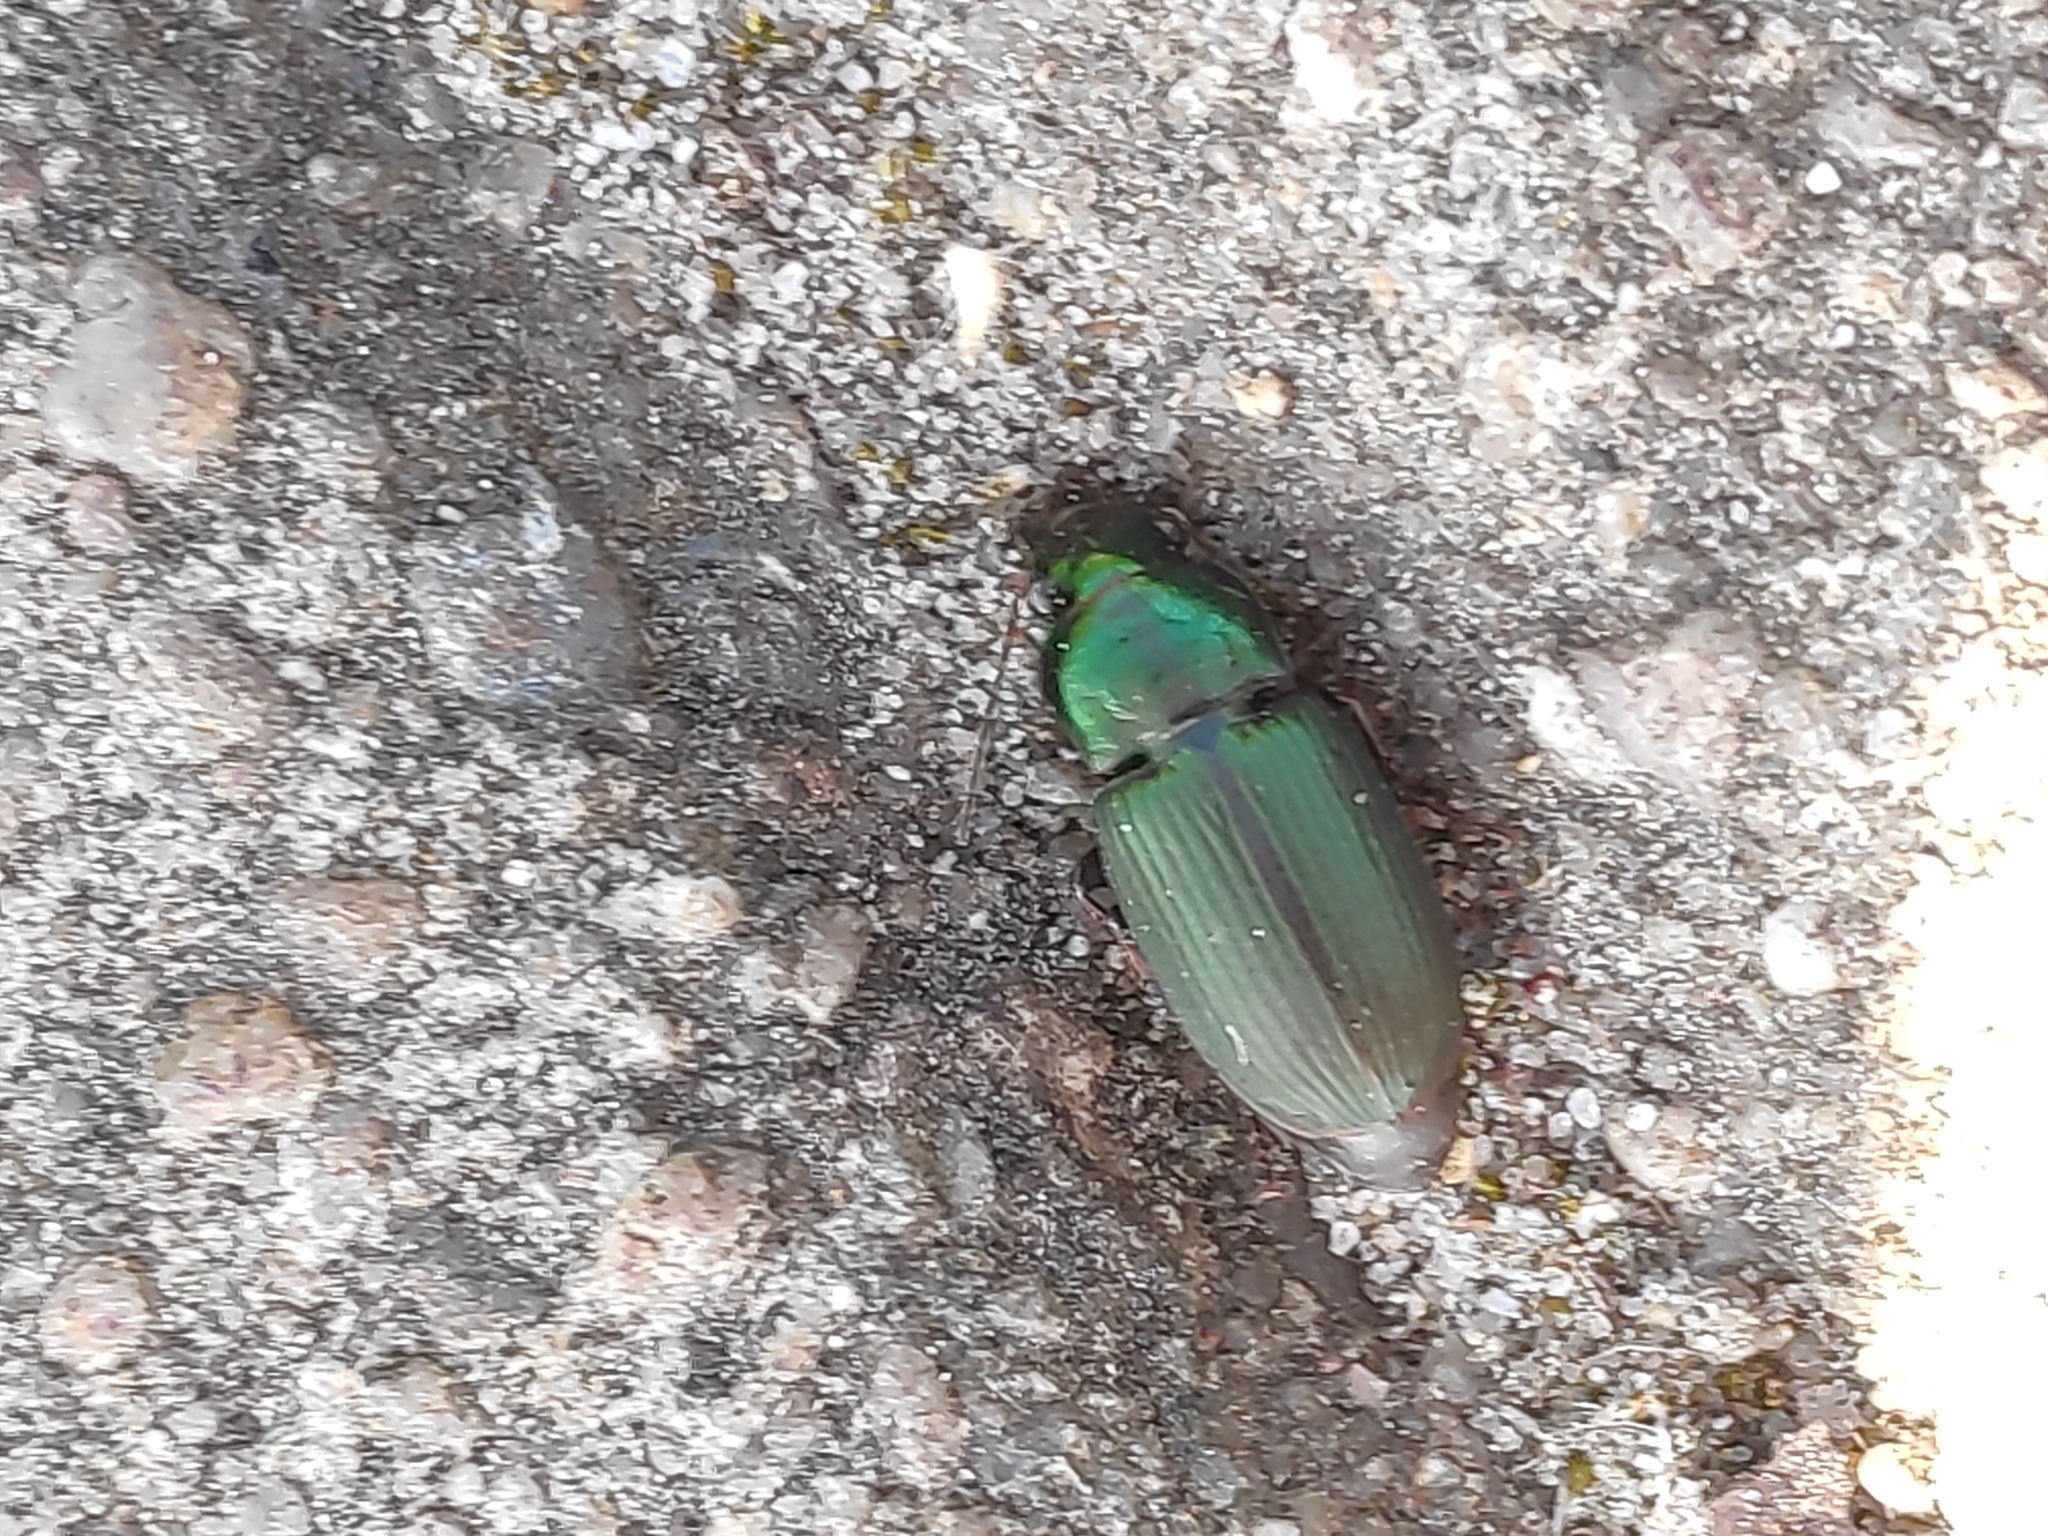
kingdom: Animalia
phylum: Arthropoda
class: Insecta
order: Coleoptera
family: Carabidae
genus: Harpalus
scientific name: Harpalus distinguendus
